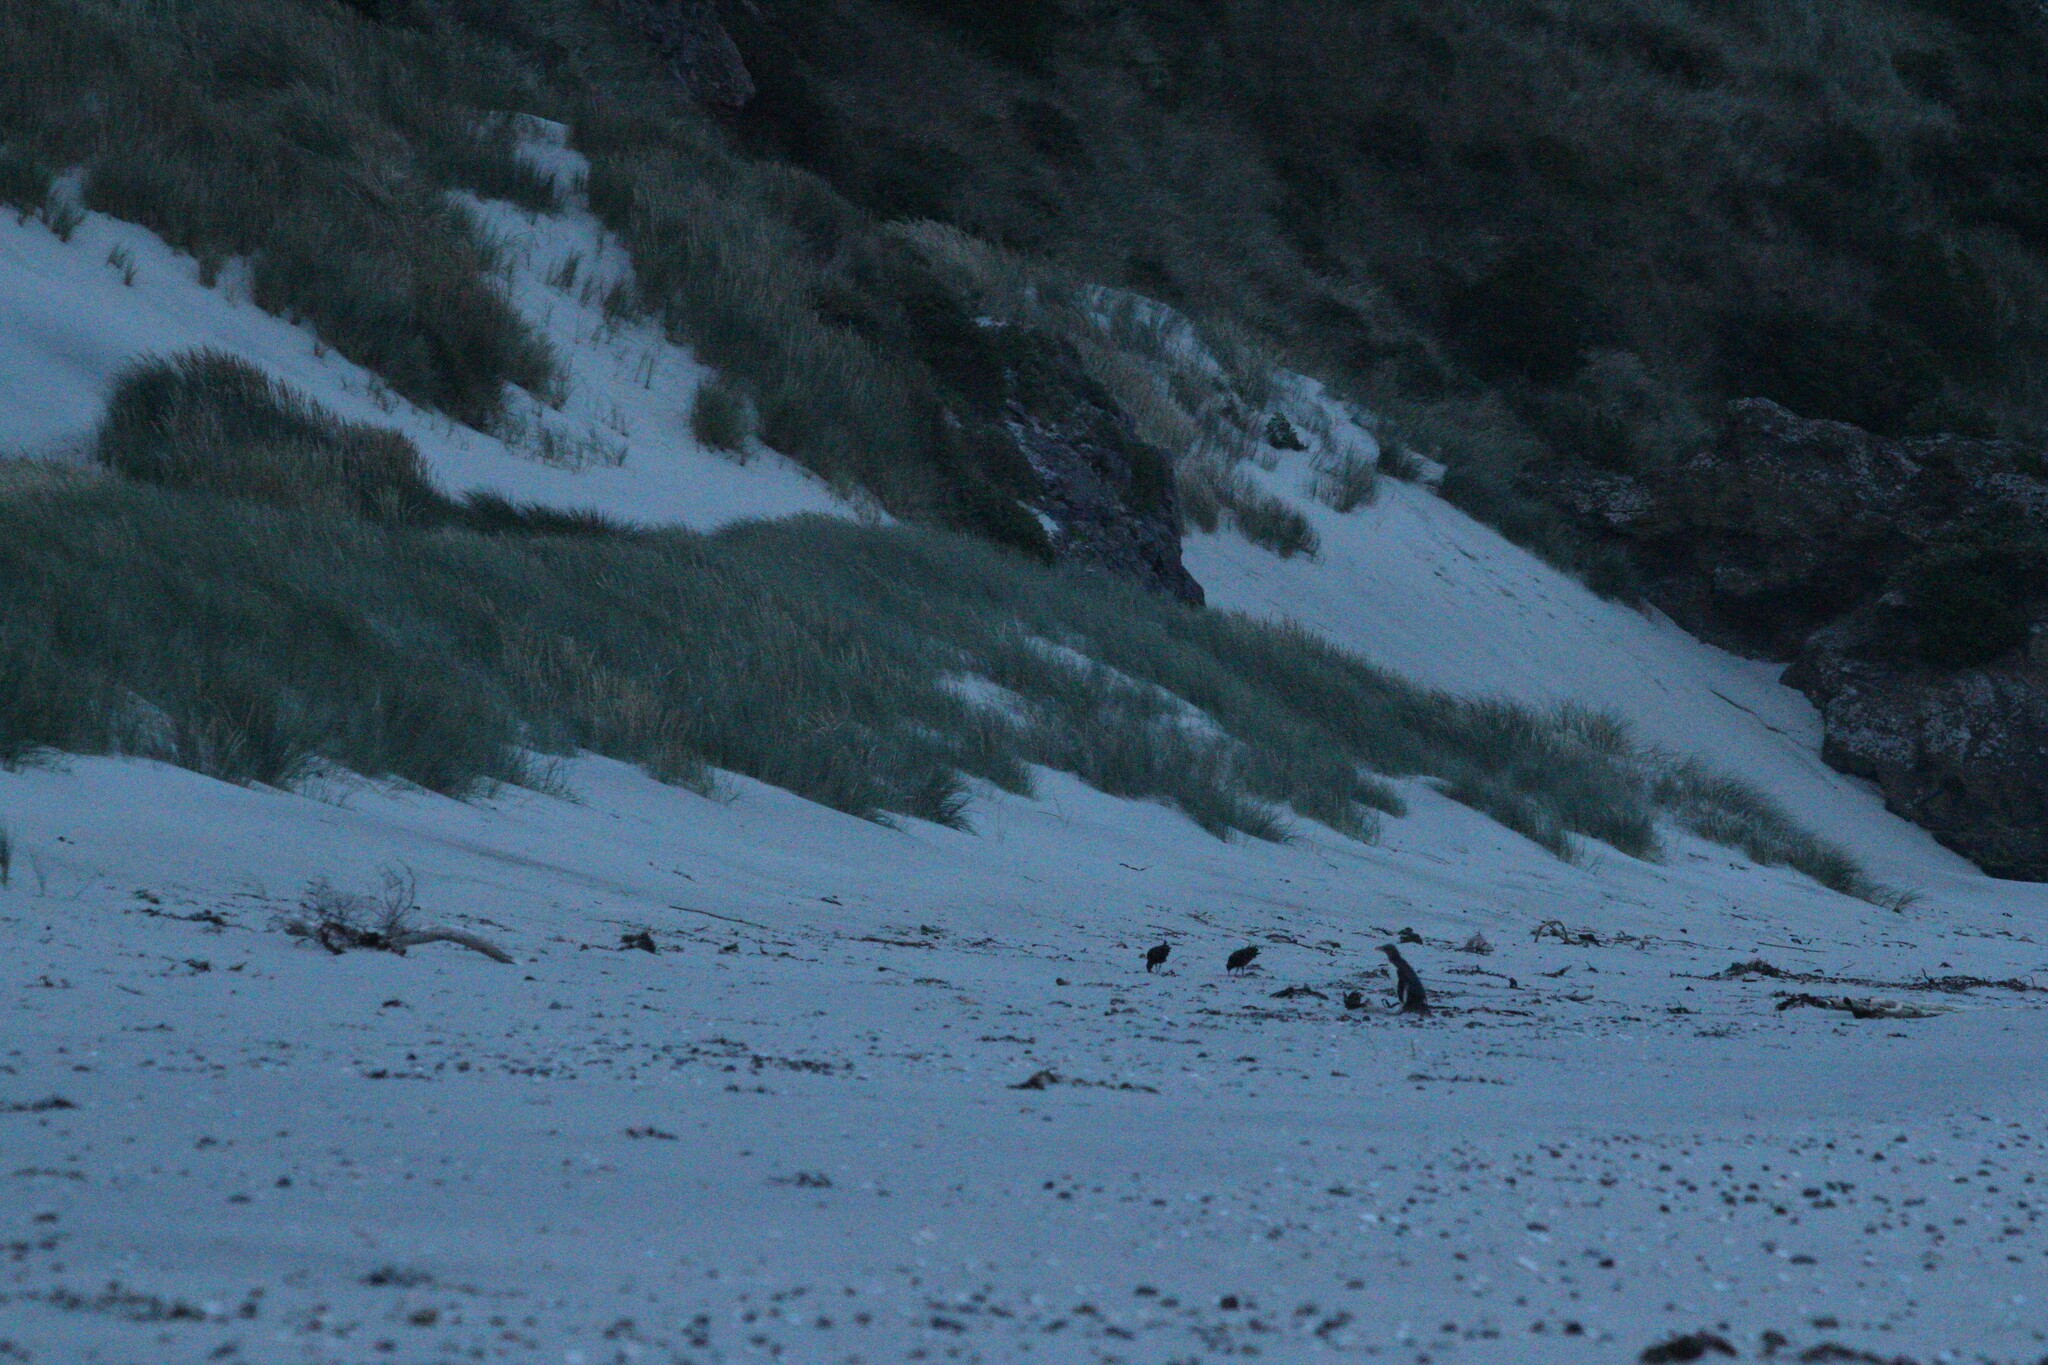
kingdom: Animalia
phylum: Chordata
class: Aves
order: Sphenisciformes
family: Spheniscidae
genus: Megadyptes
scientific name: Megadyptes antipodes
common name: Yellow-eyed penguin
